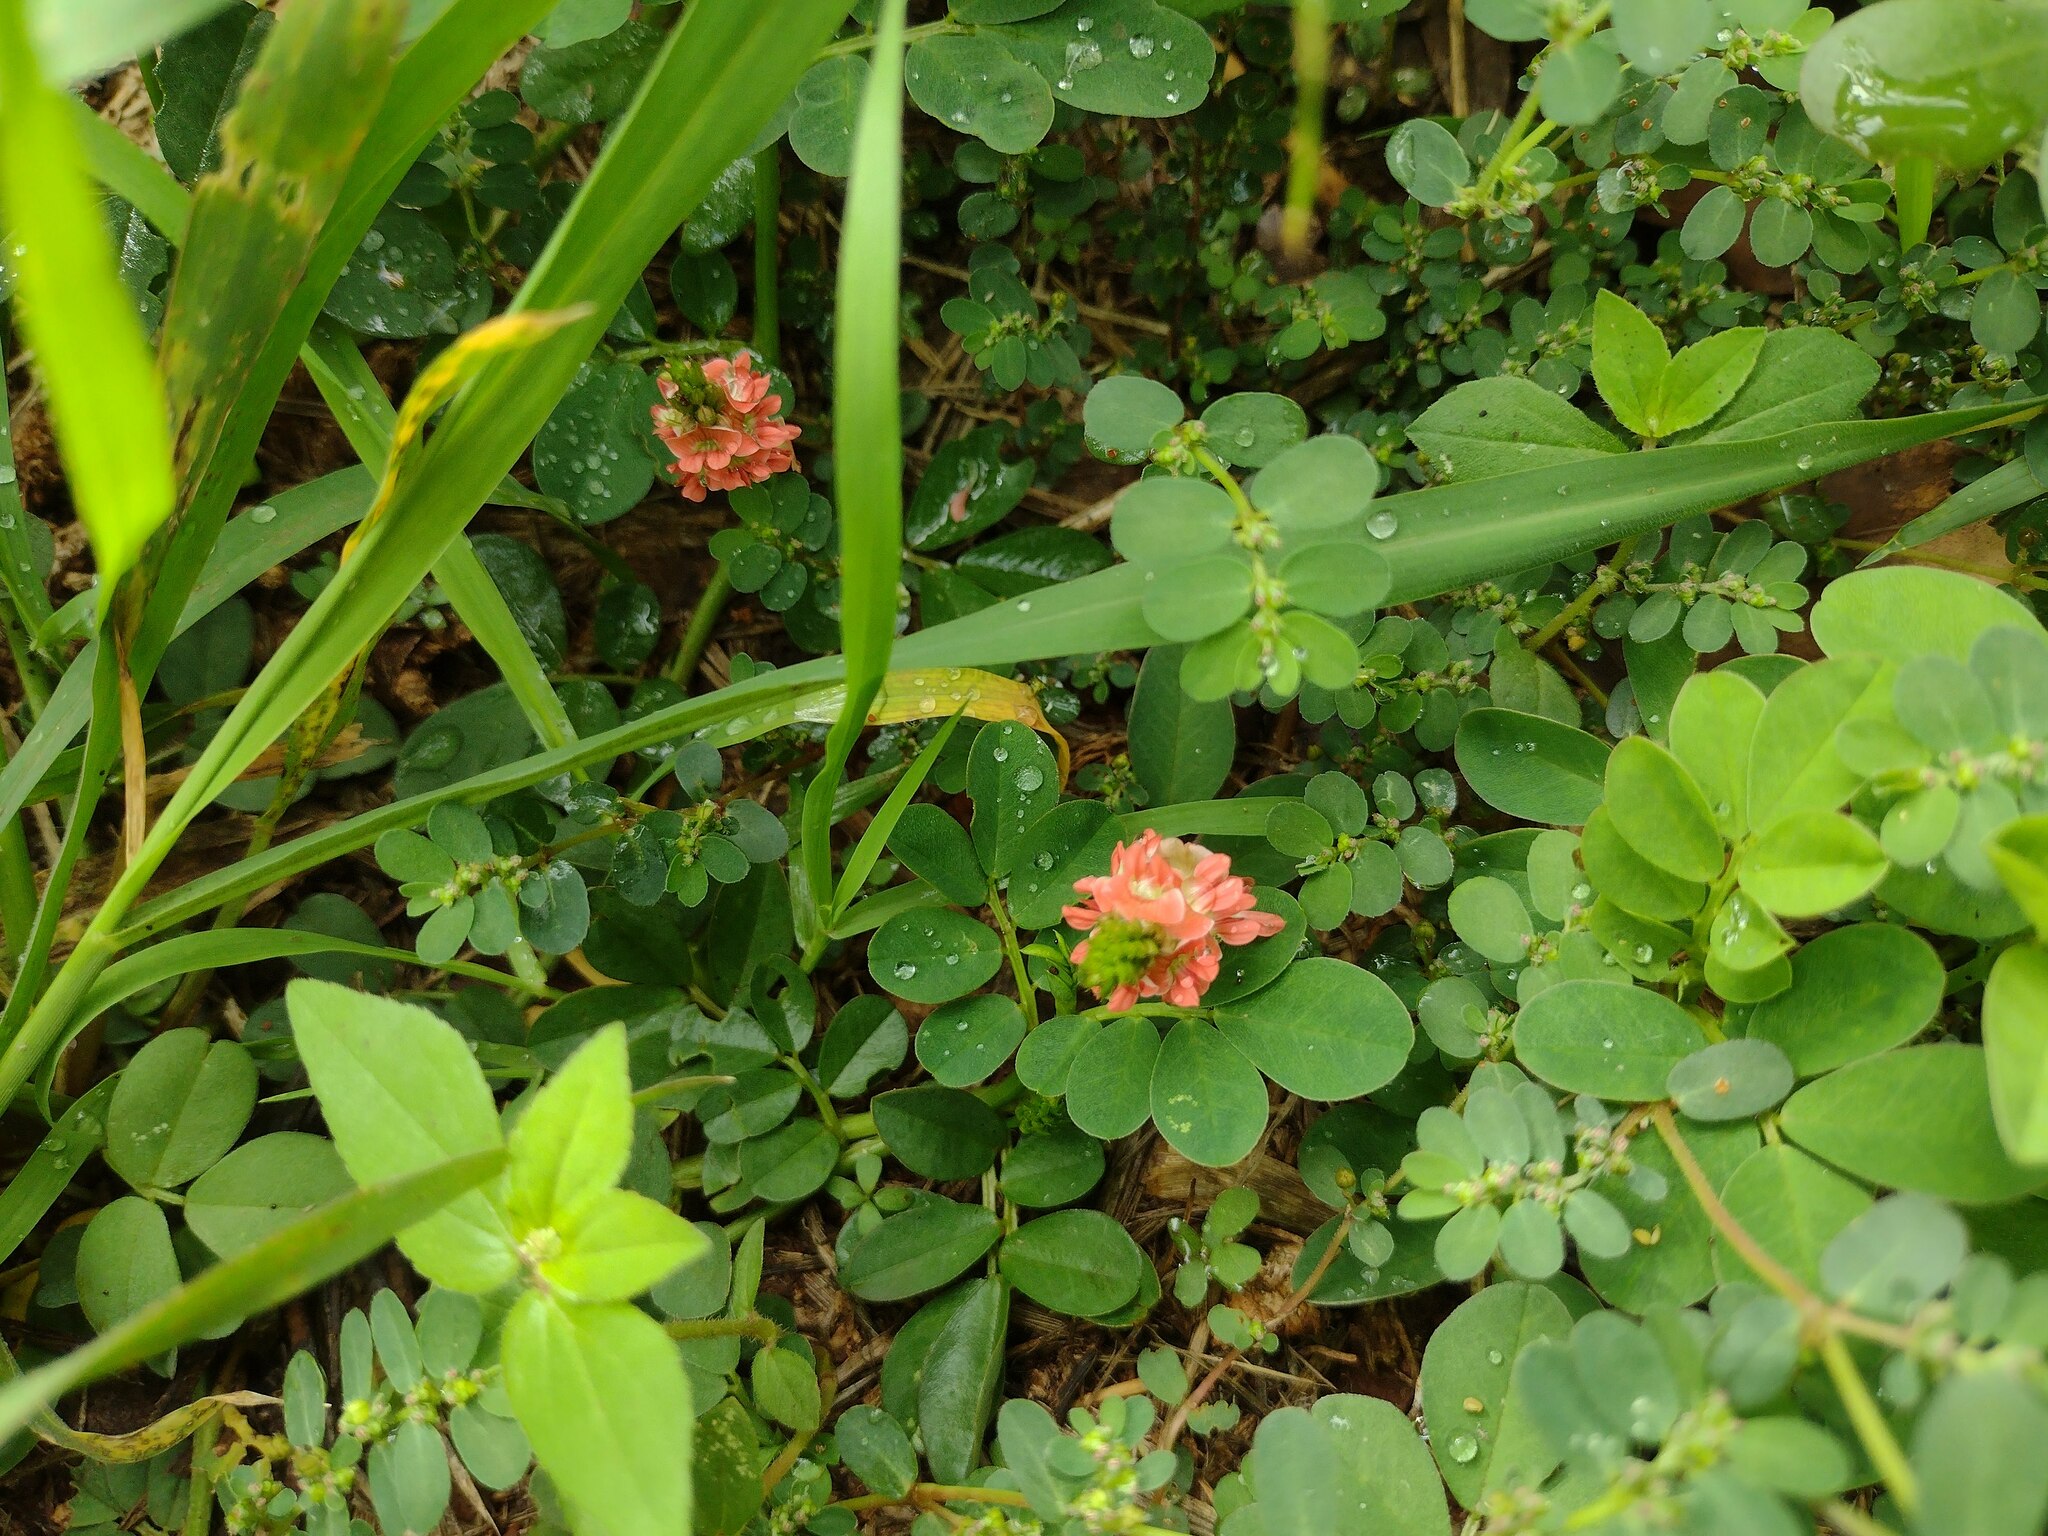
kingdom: Plantae
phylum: Tracheophyta
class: Magnoliopsida
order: Fabales
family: Fabaceae
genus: Indigofera
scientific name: Indigofera spicata
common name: Creeping indigo
